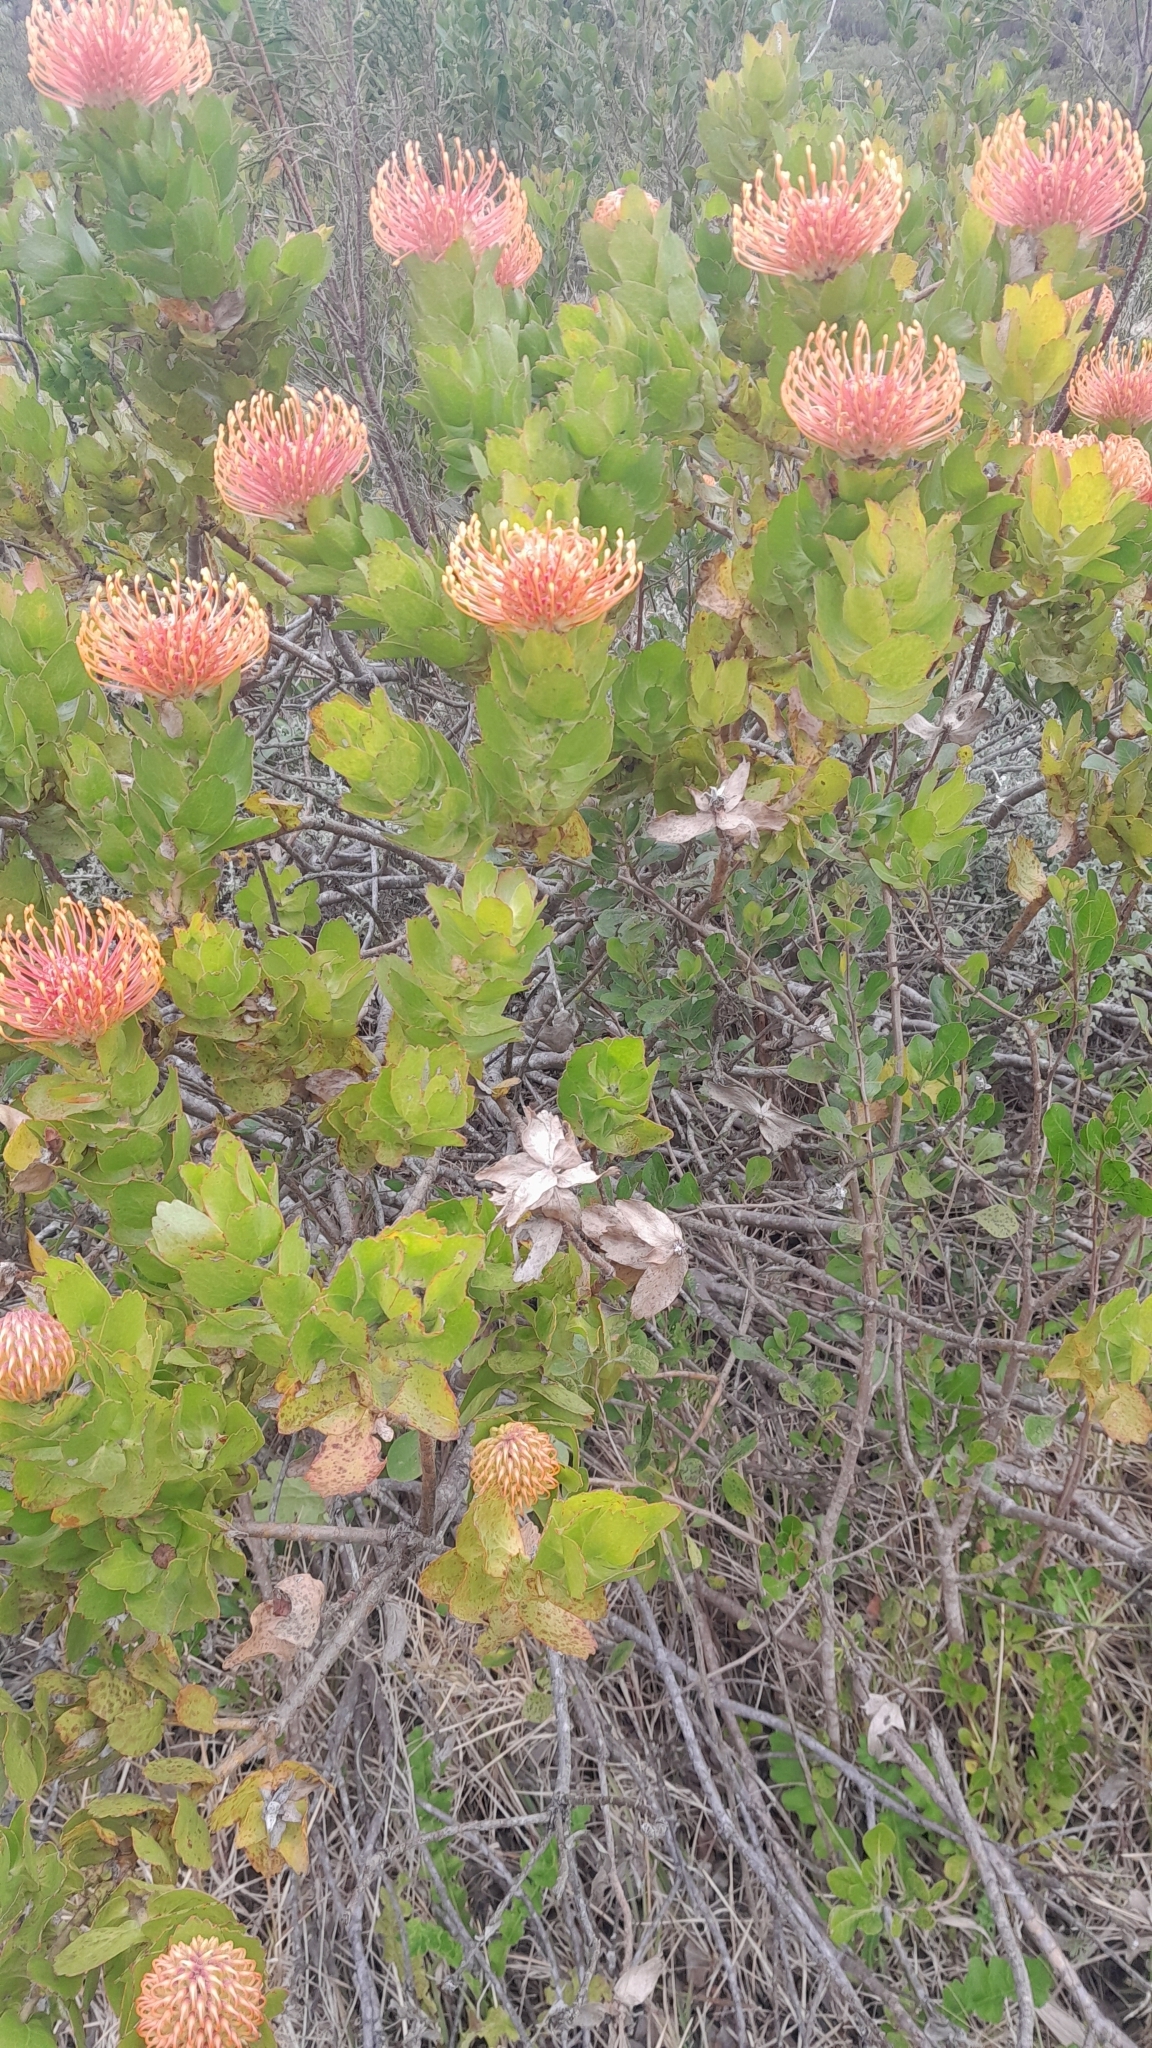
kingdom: Plantae
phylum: Tracheophyta
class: Magnoliopsida
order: Proteales
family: Proteaceae
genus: Leucospermum
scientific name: Leucospermum patersonii
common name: False tree pincushion
